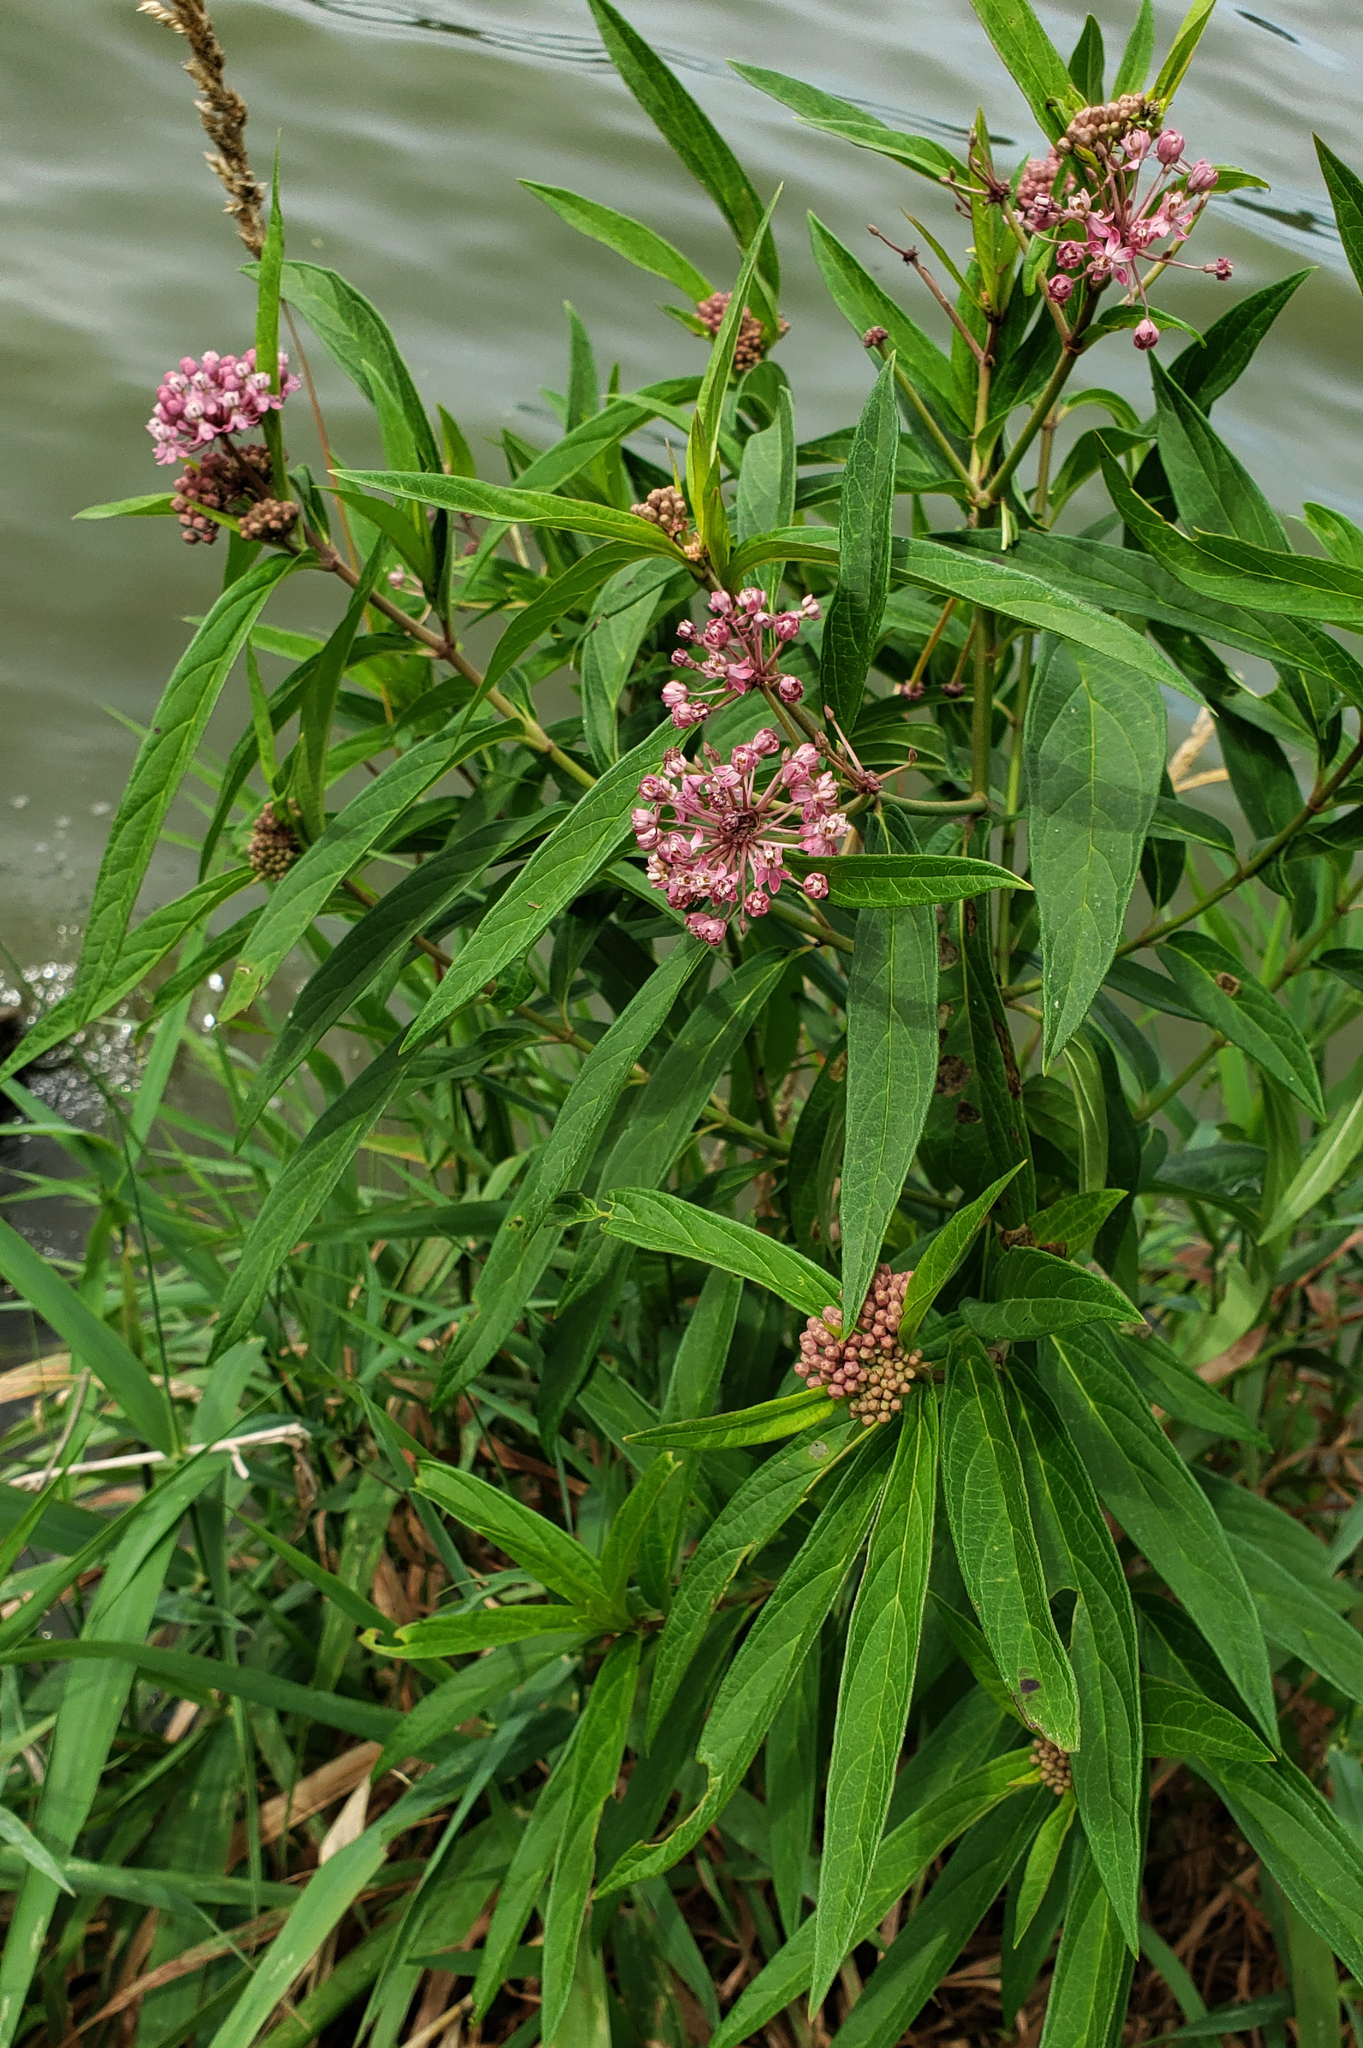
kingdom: Plantae
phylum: Tracheophyta
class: Magnoliopsida
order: Gentianales
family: Apocynaceae
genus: Asclepias
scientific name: Asclepias incarnata
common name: Swamp milkweed
